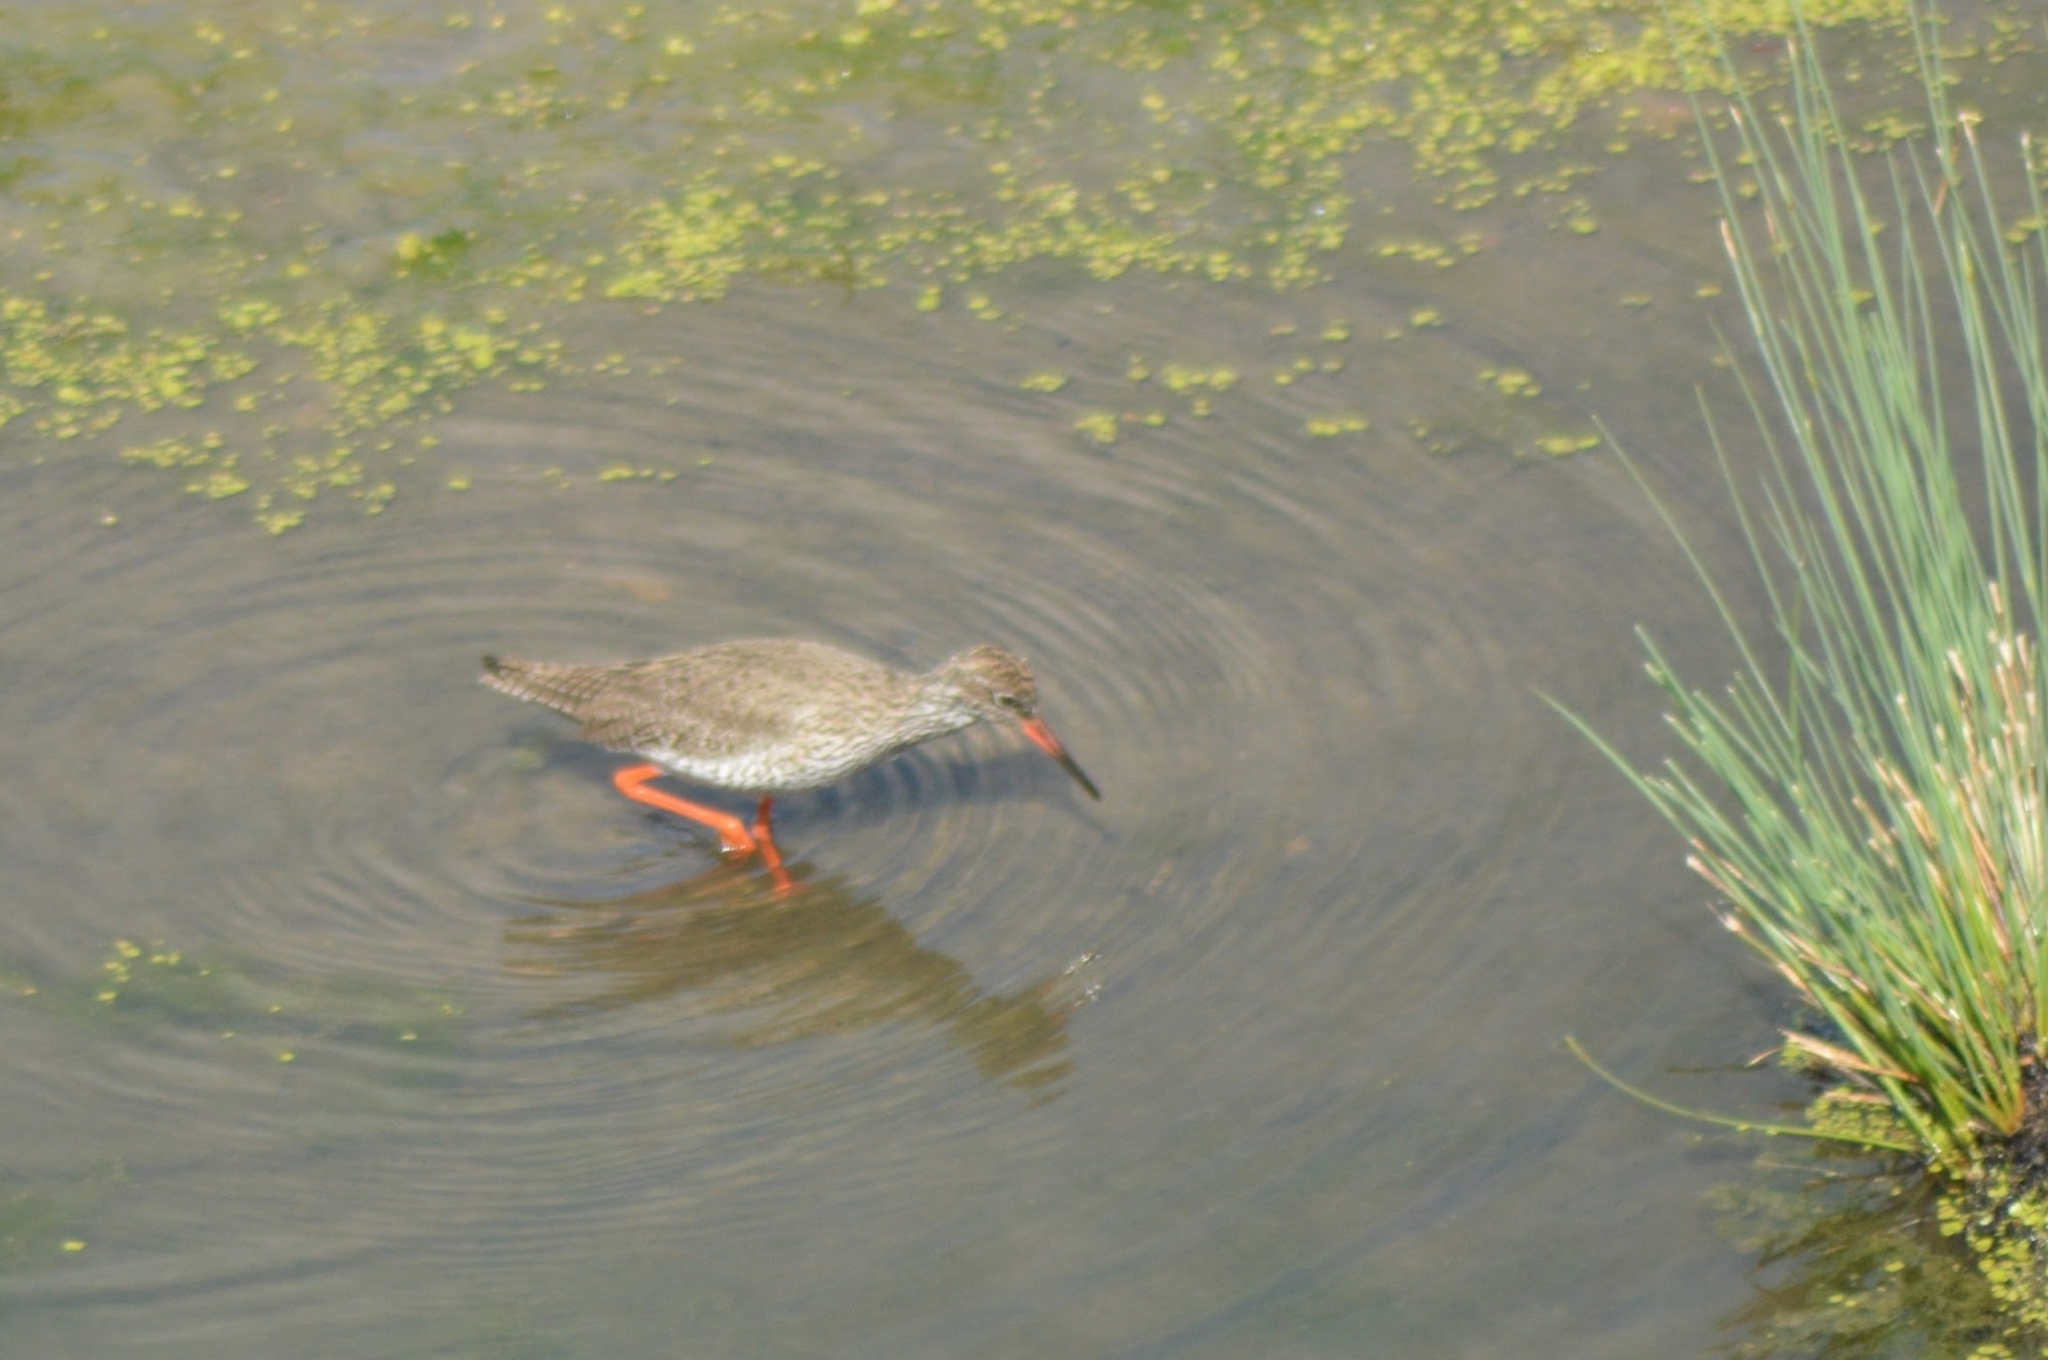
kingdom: Animalia
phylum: Chordata
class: Aves
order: Charadriiformes
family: Scolopacidae
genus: Tringa
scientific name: Tringa totanus
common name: Common redshank
